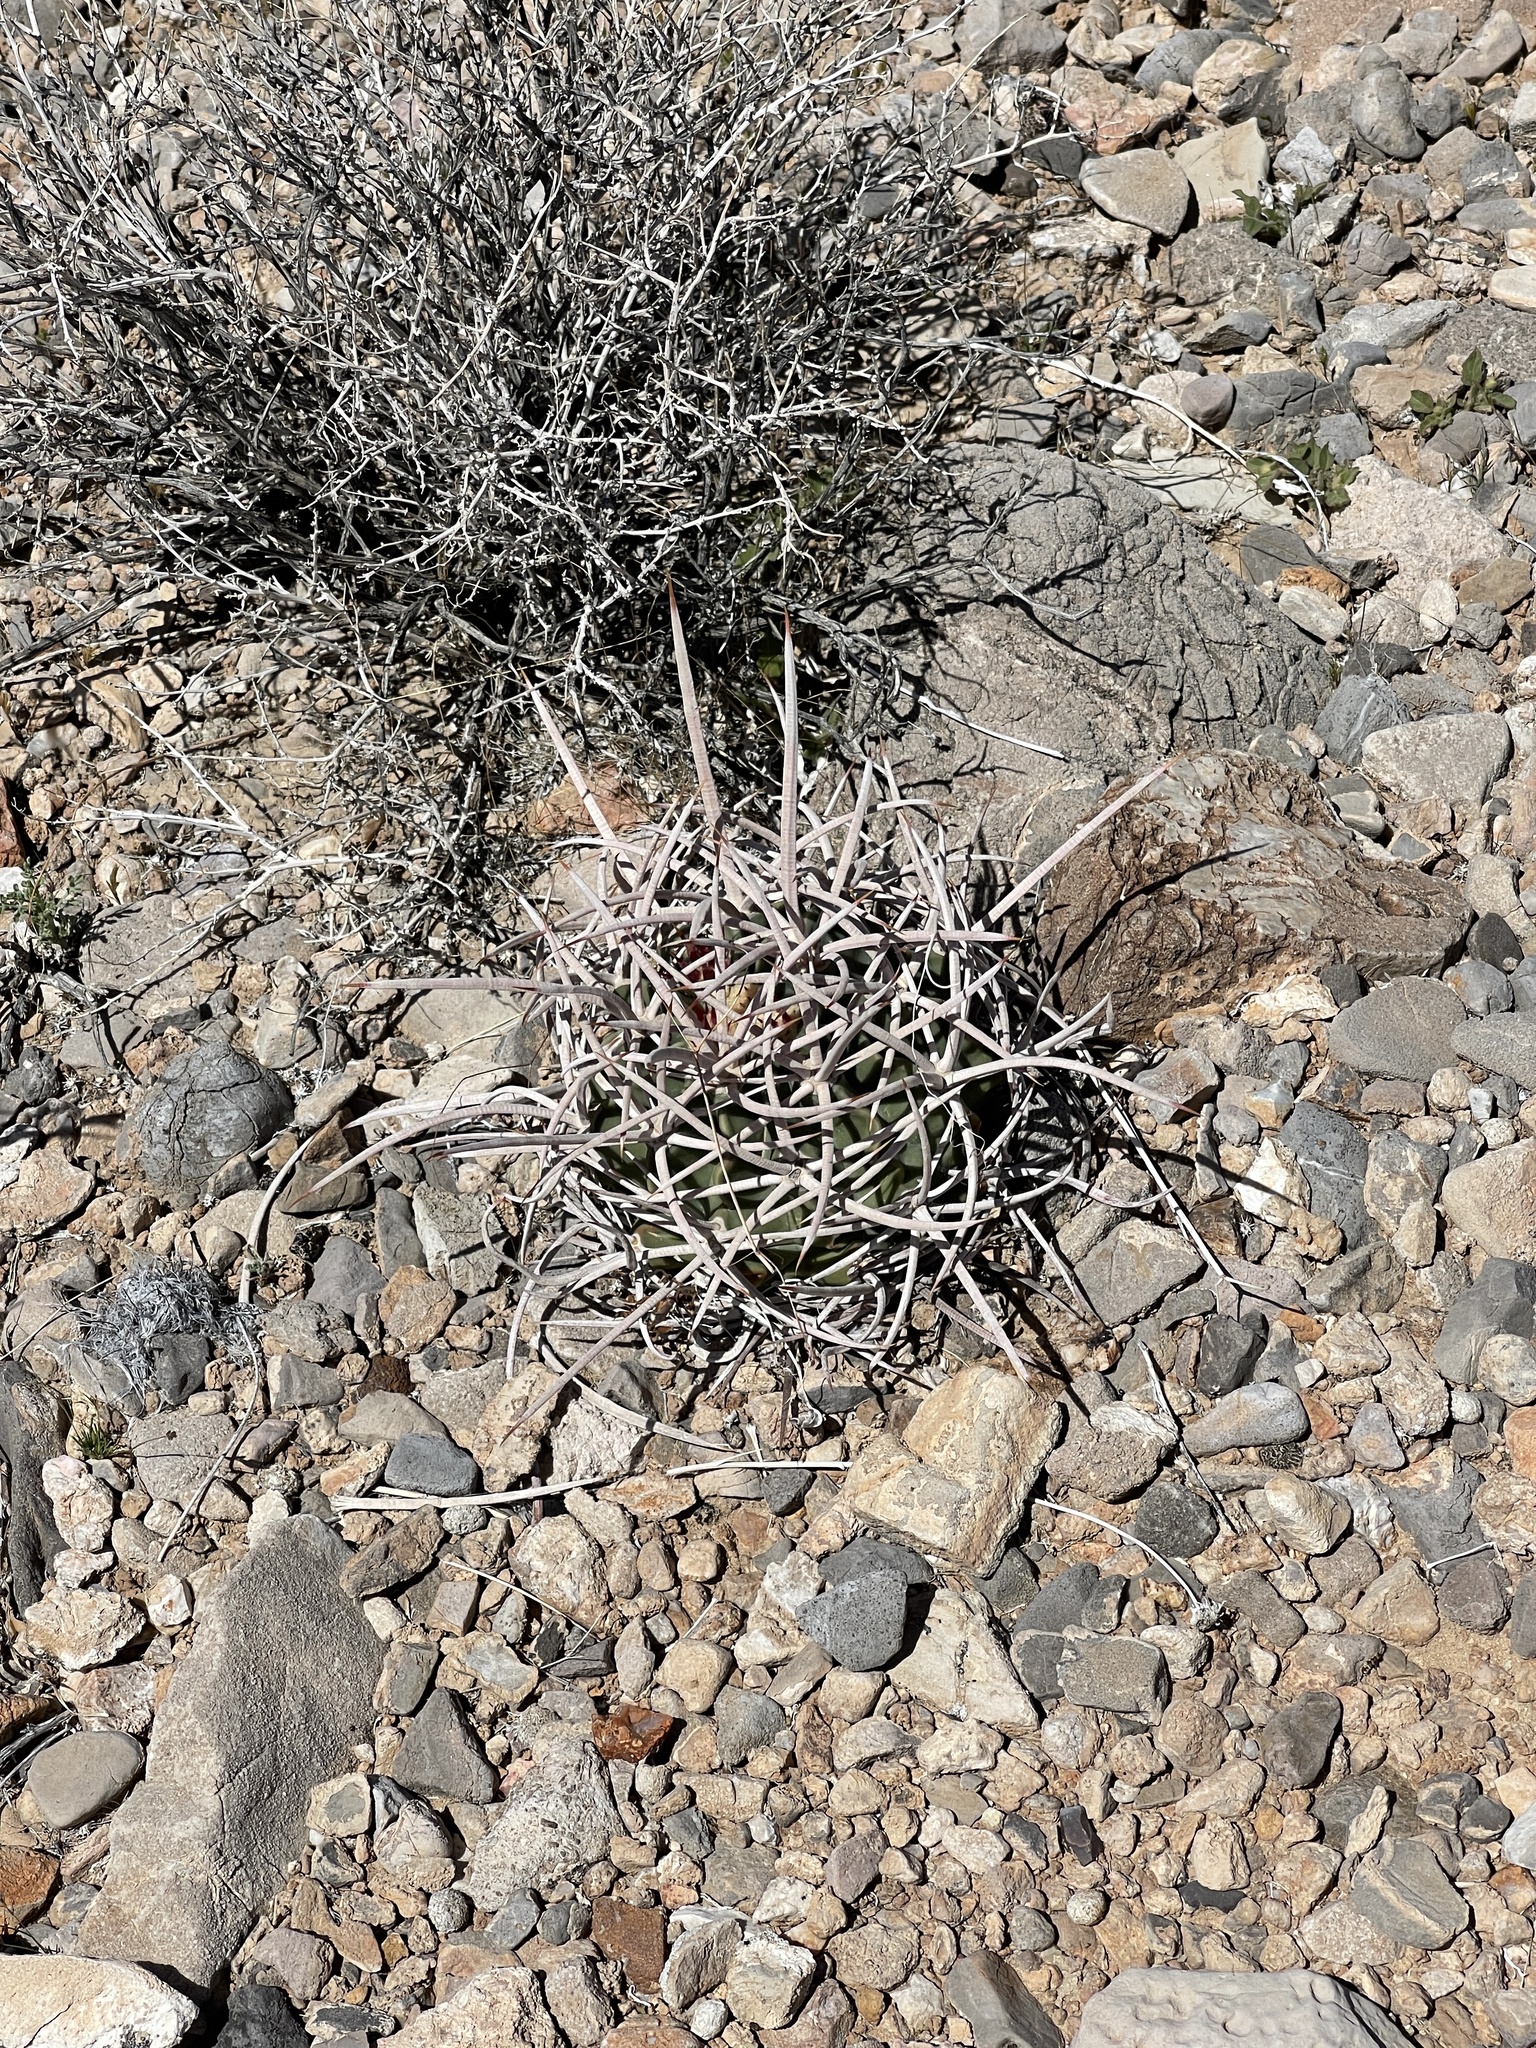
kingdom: Plantae
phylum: Tracheophyta
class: Magnoliopsida
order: Caryophyllales
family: Cactaceae
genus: Echinocactus
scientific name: Echinocactus polycephalus
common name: Cottontop cactus
